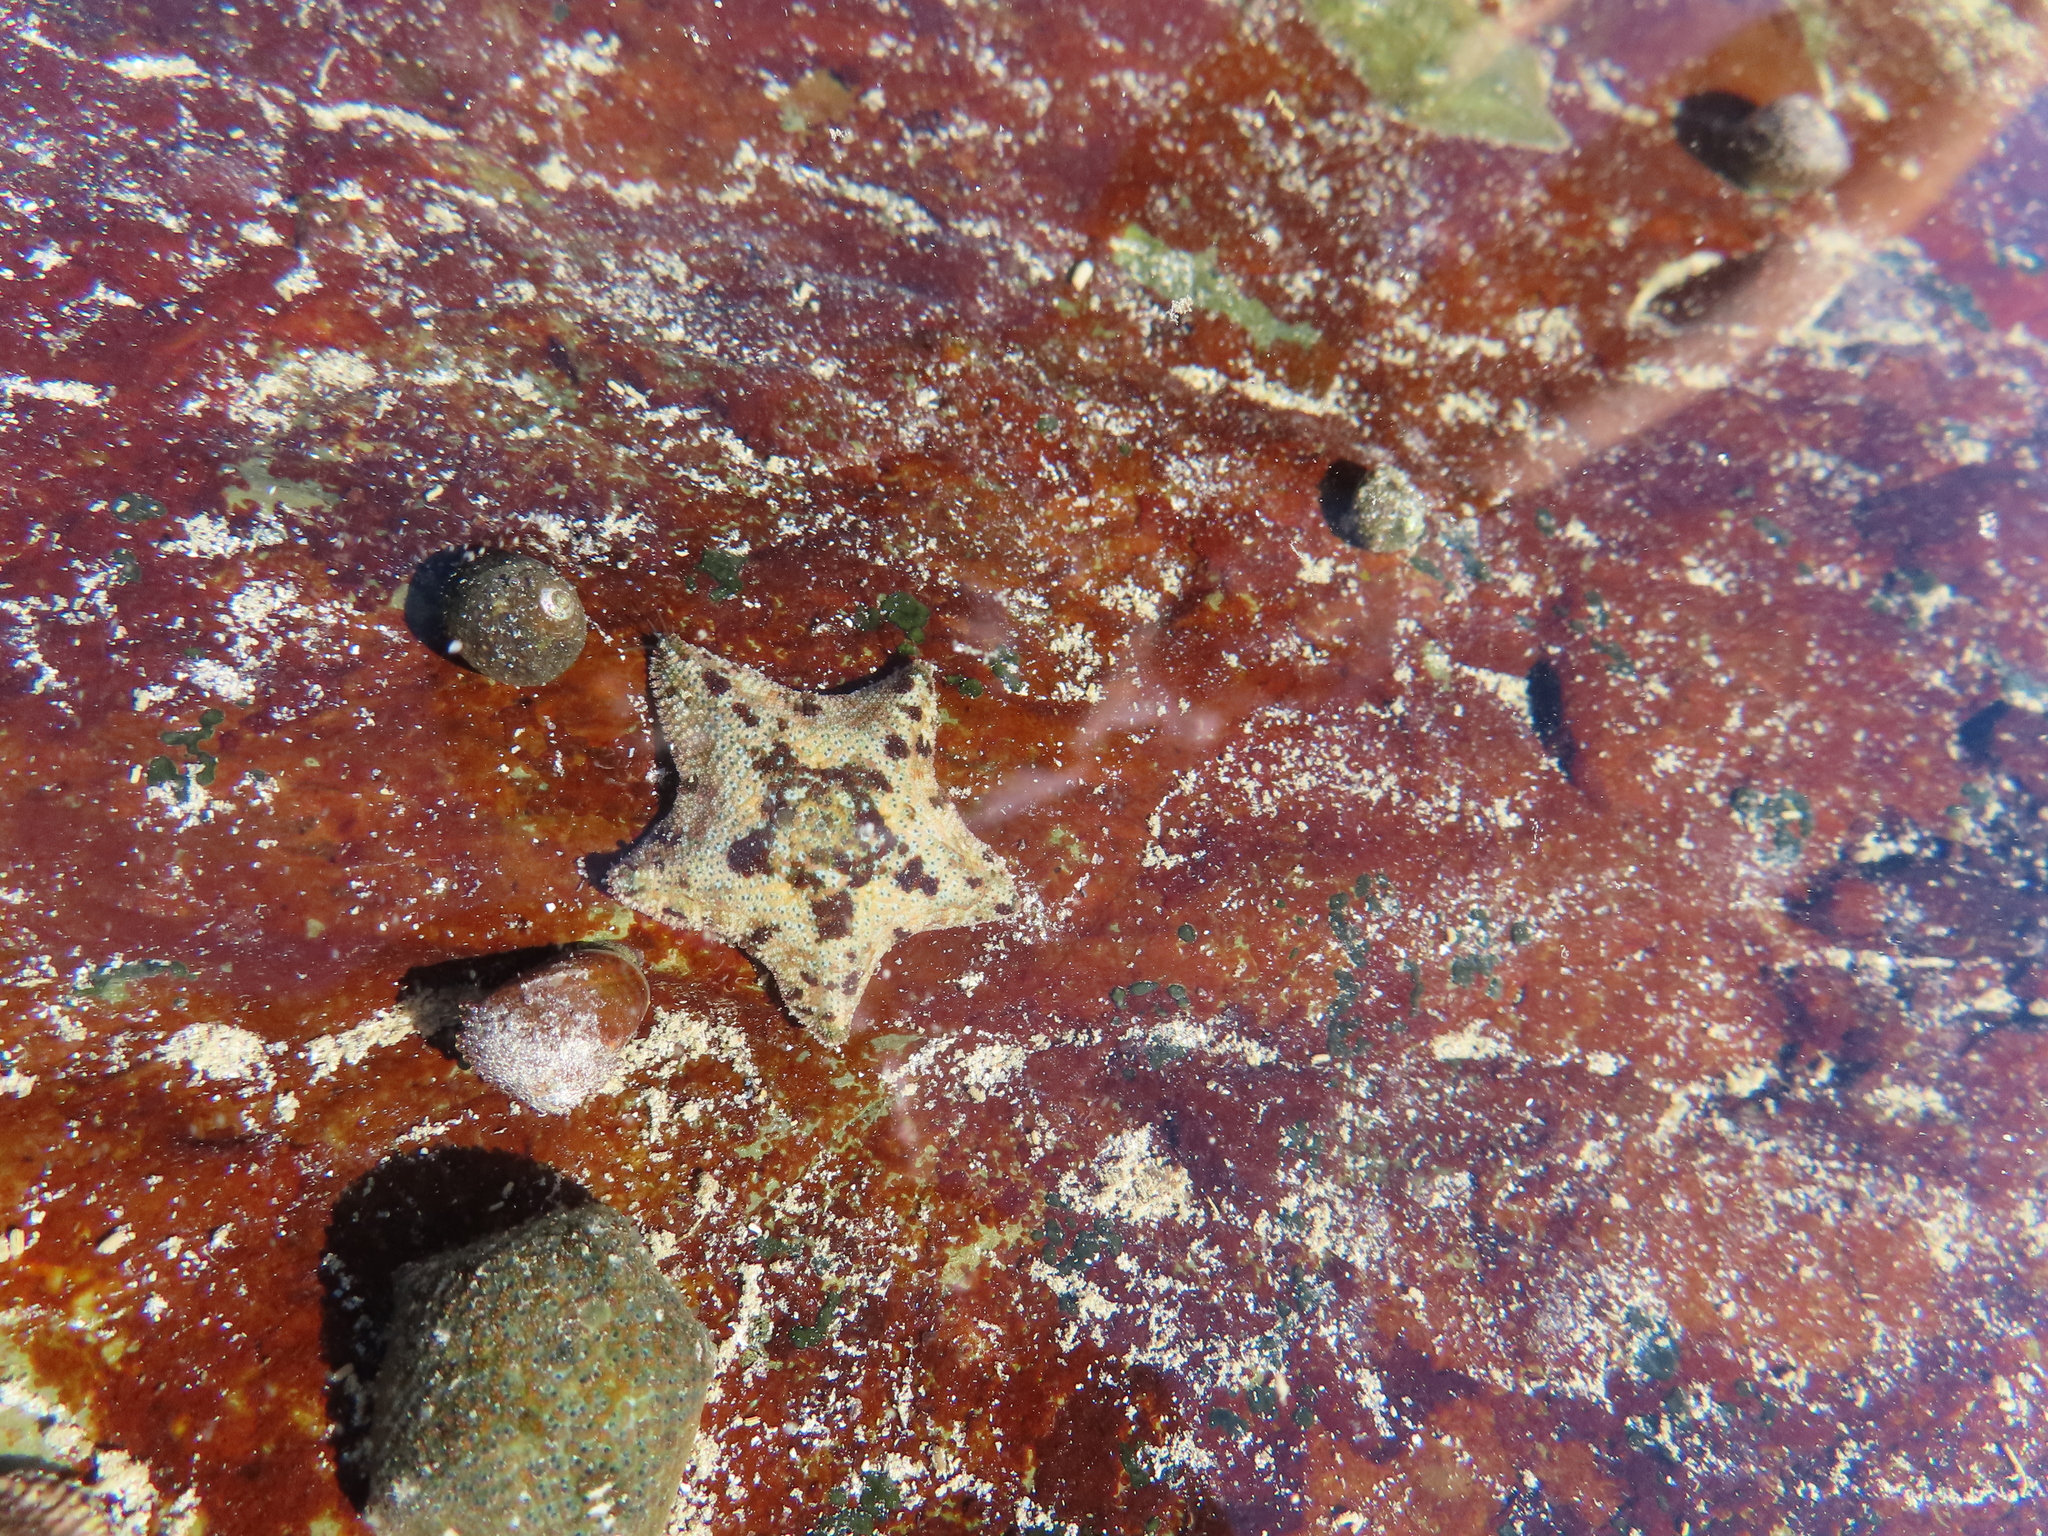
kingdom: Animalia
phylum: Echinodermata
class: Asteroidea
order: Valvatida
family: Asterinidae
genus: Parvulastra
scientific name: Parvulastra exigua
